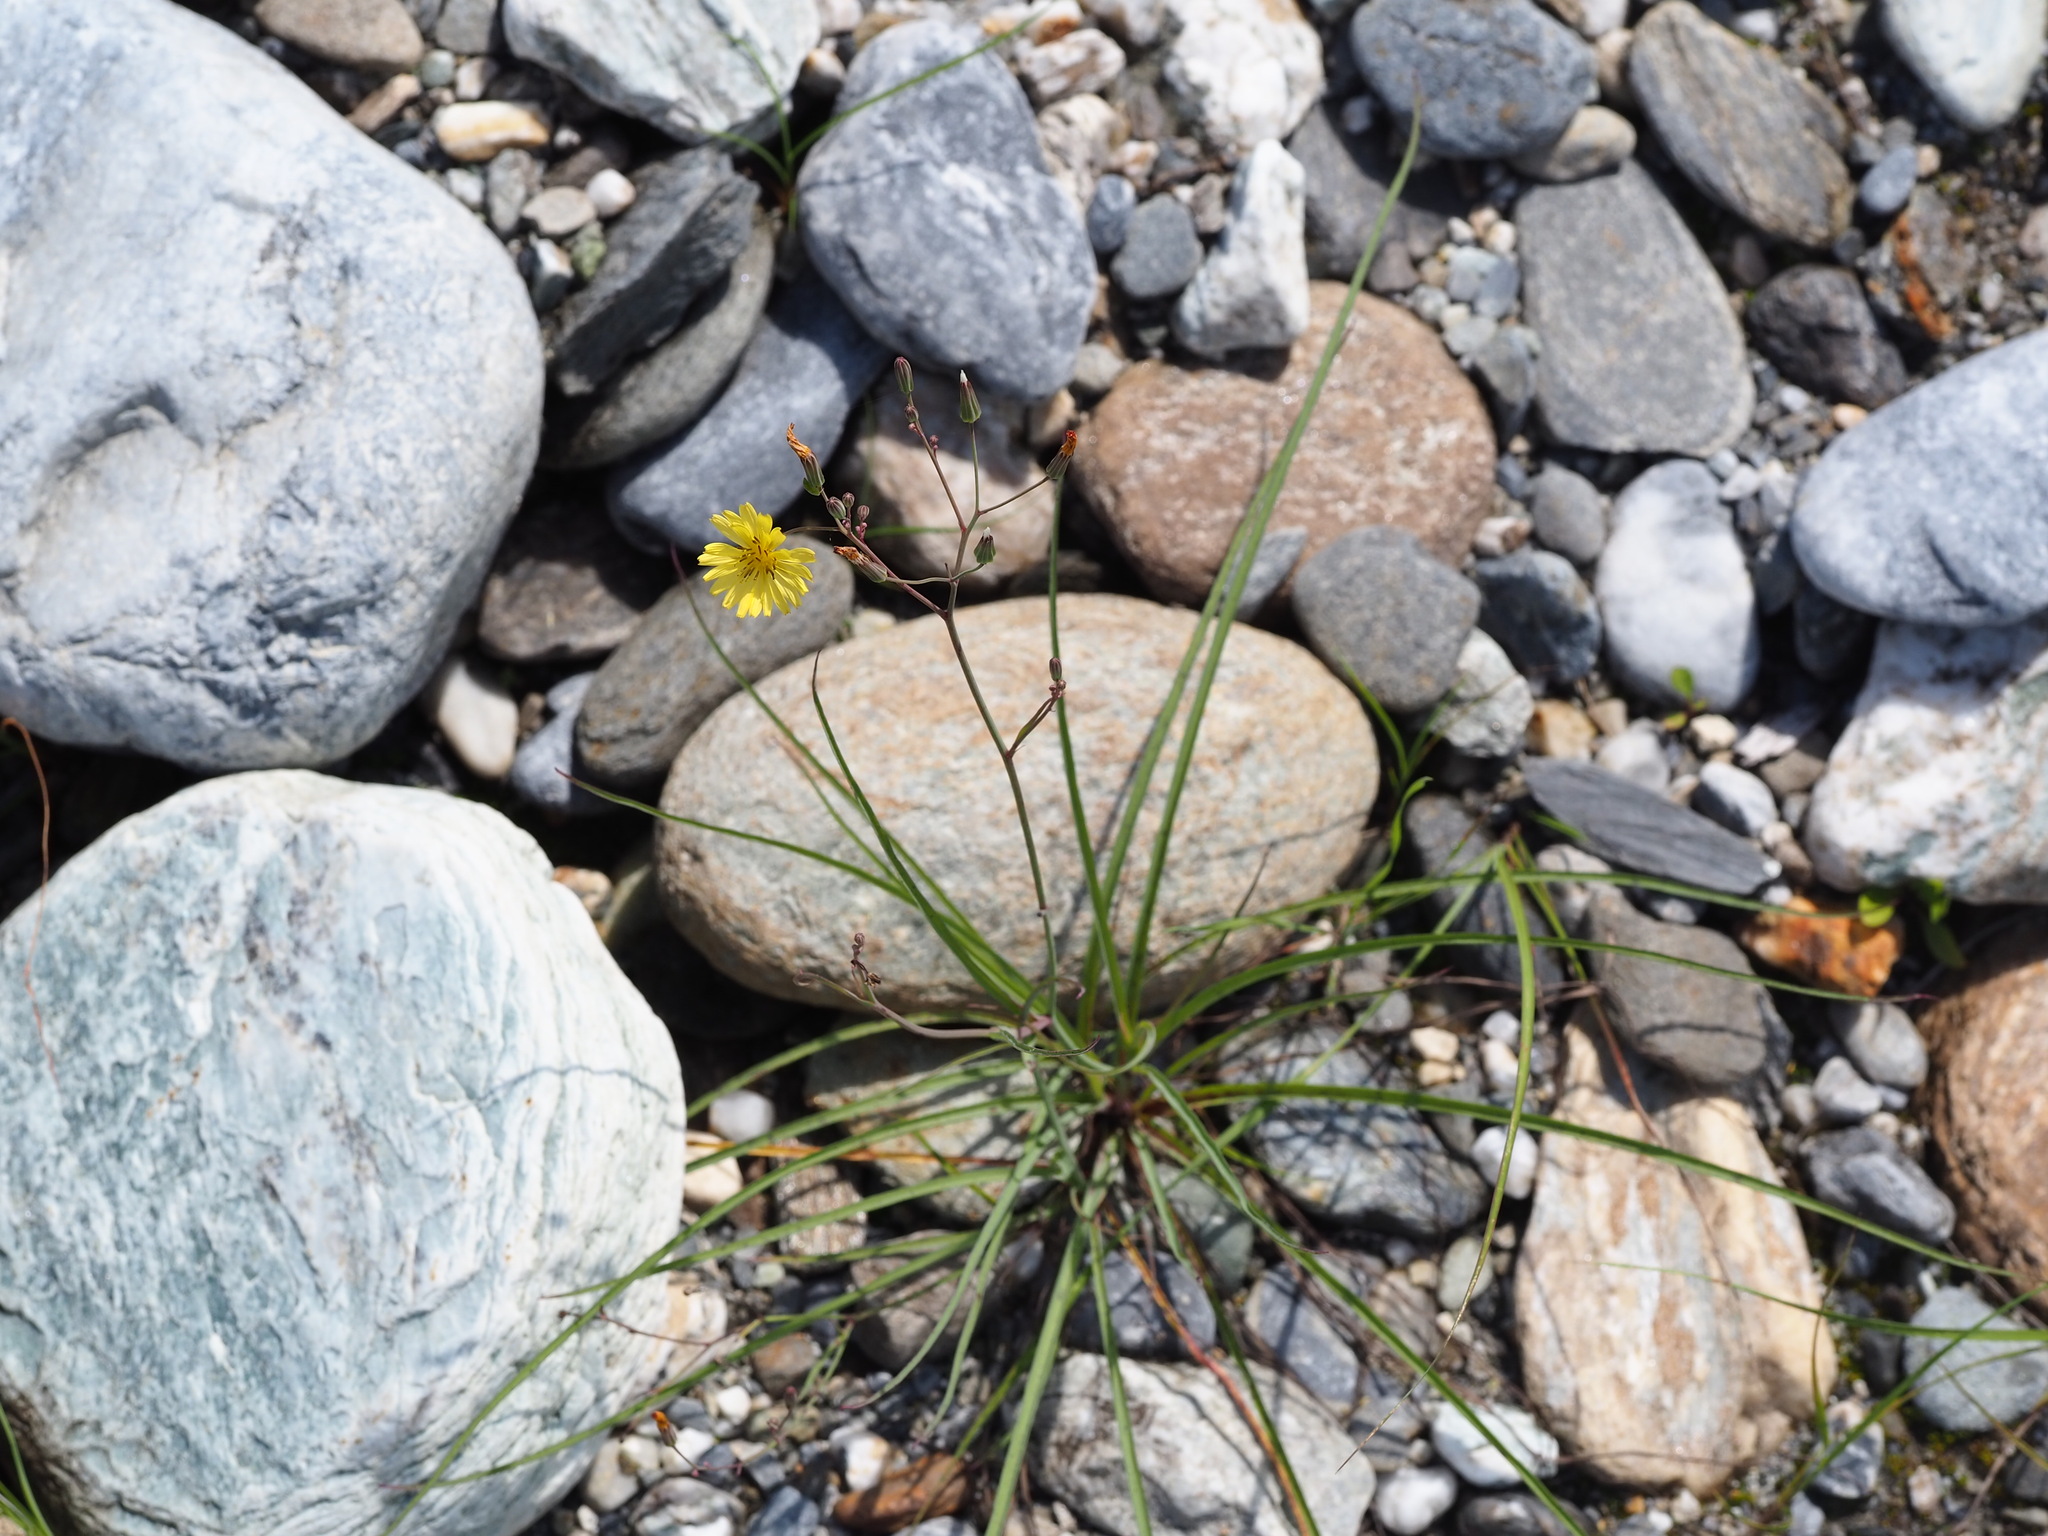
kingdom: Plantae
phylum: Tracheophyta
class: Magnoliopsida
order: Asterales
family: Asteraceae
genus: Ixeris
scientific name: Ixeris tamagawaensis
